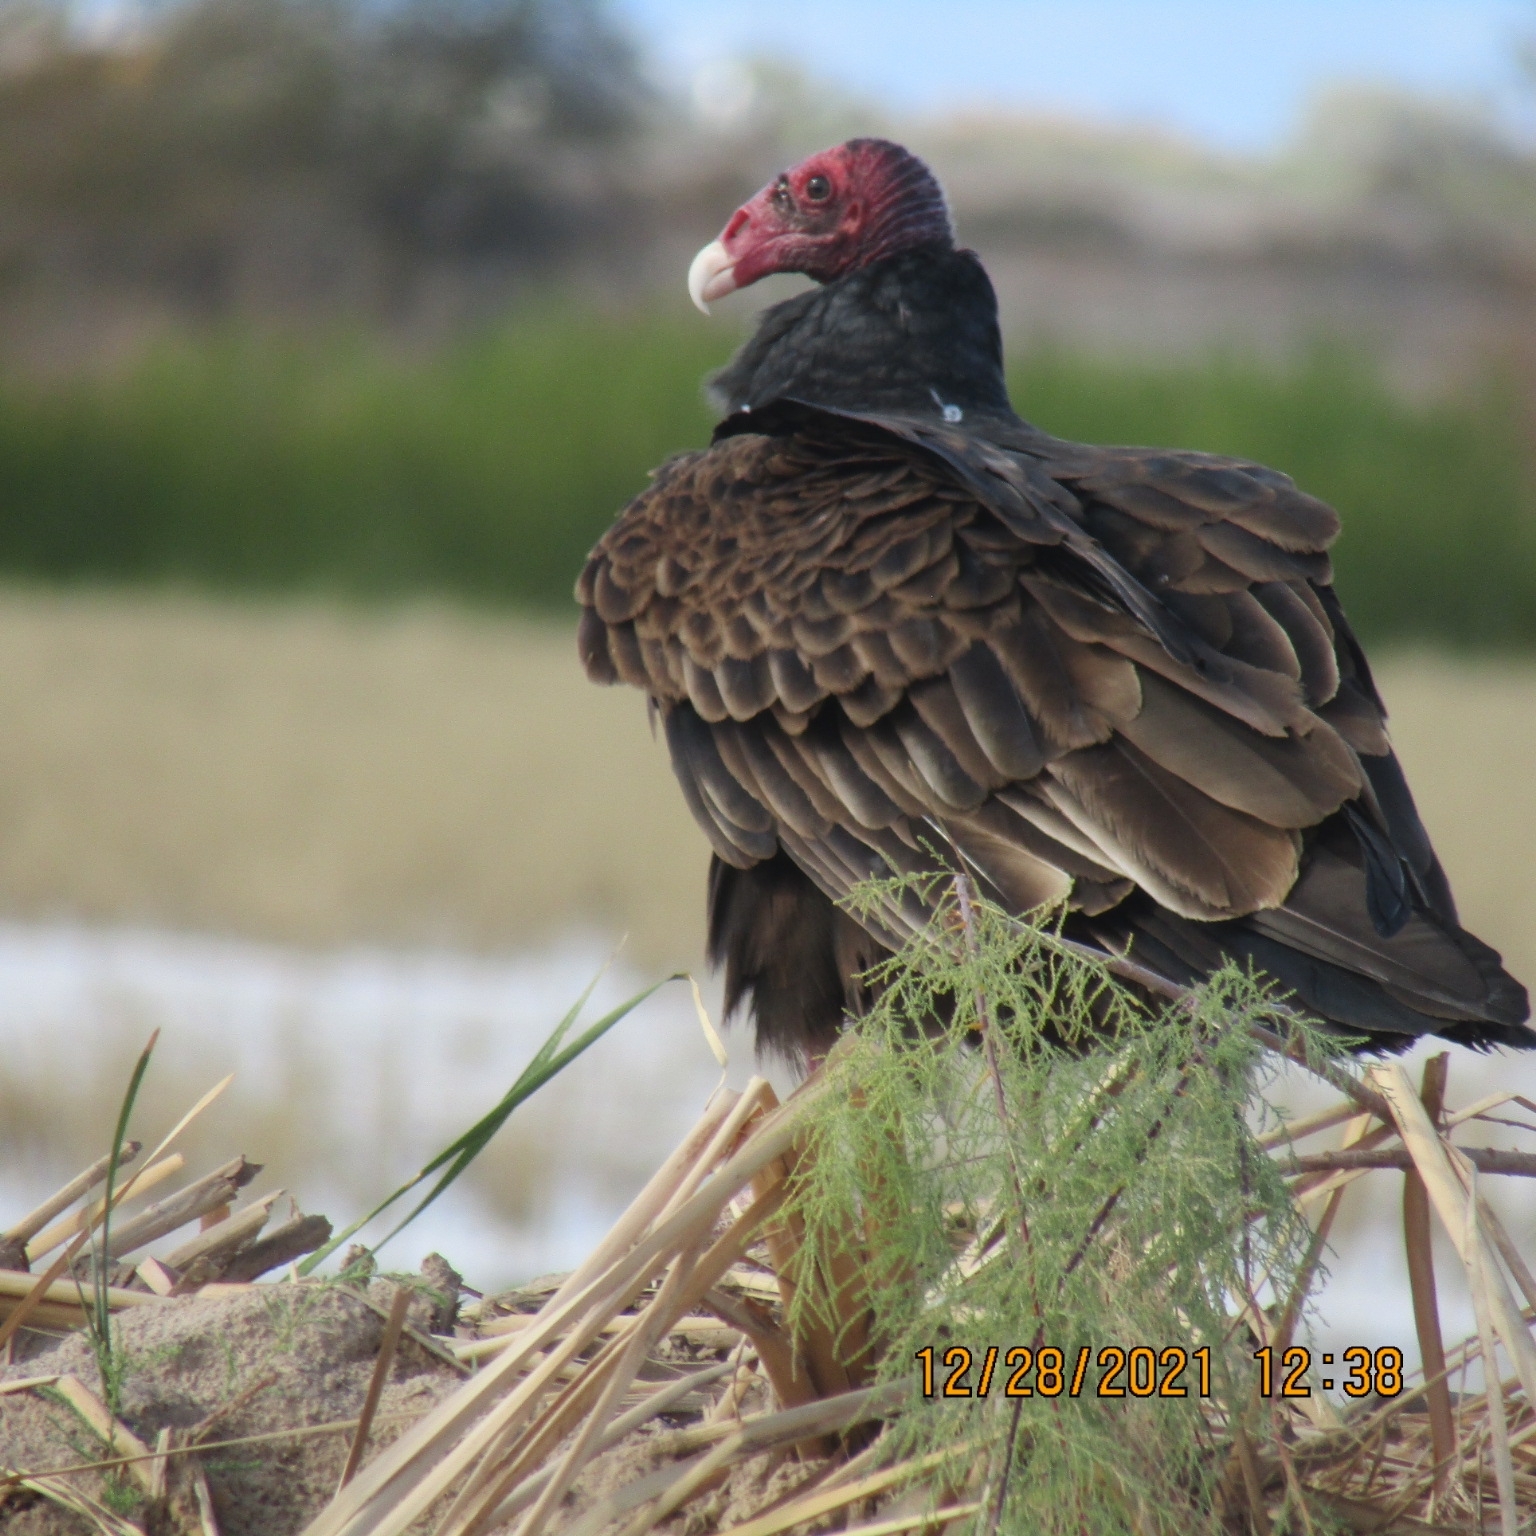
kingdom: Animalia
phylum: Chordata
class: Aves
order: Accipitriformes
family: Cathartidae
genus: Cathartes
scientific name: Cathartes aura
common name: Turkey vulture
